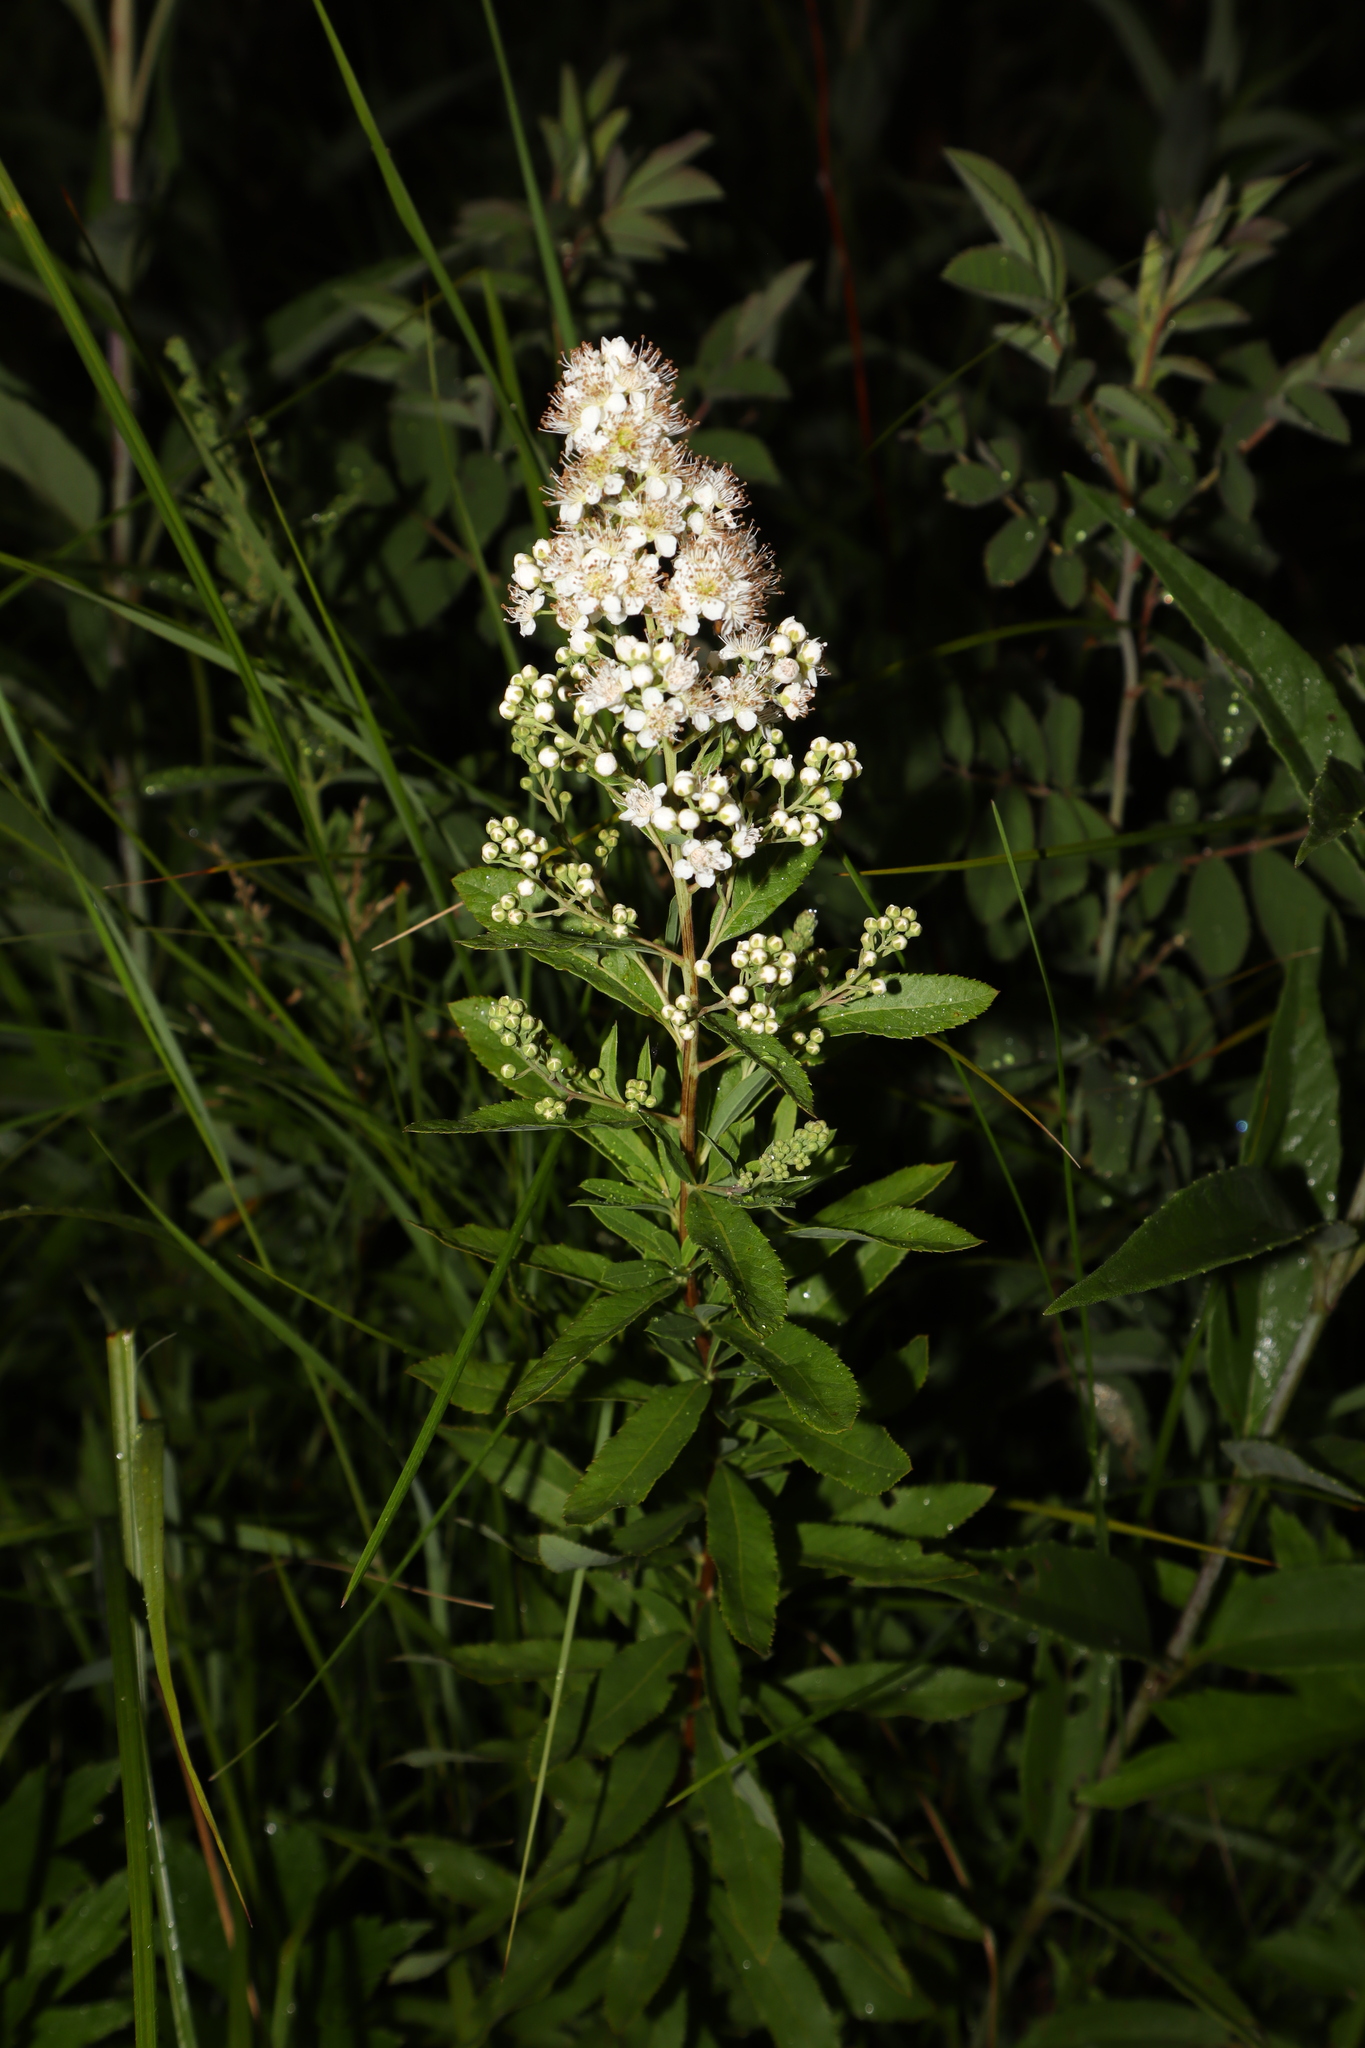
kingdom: Plantae
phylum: Tracheophyta
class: Magnoliopsida
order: Rosales
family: Rosaceae
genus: Spiraea
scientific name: Spiraea alba
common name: Pale bridewort
